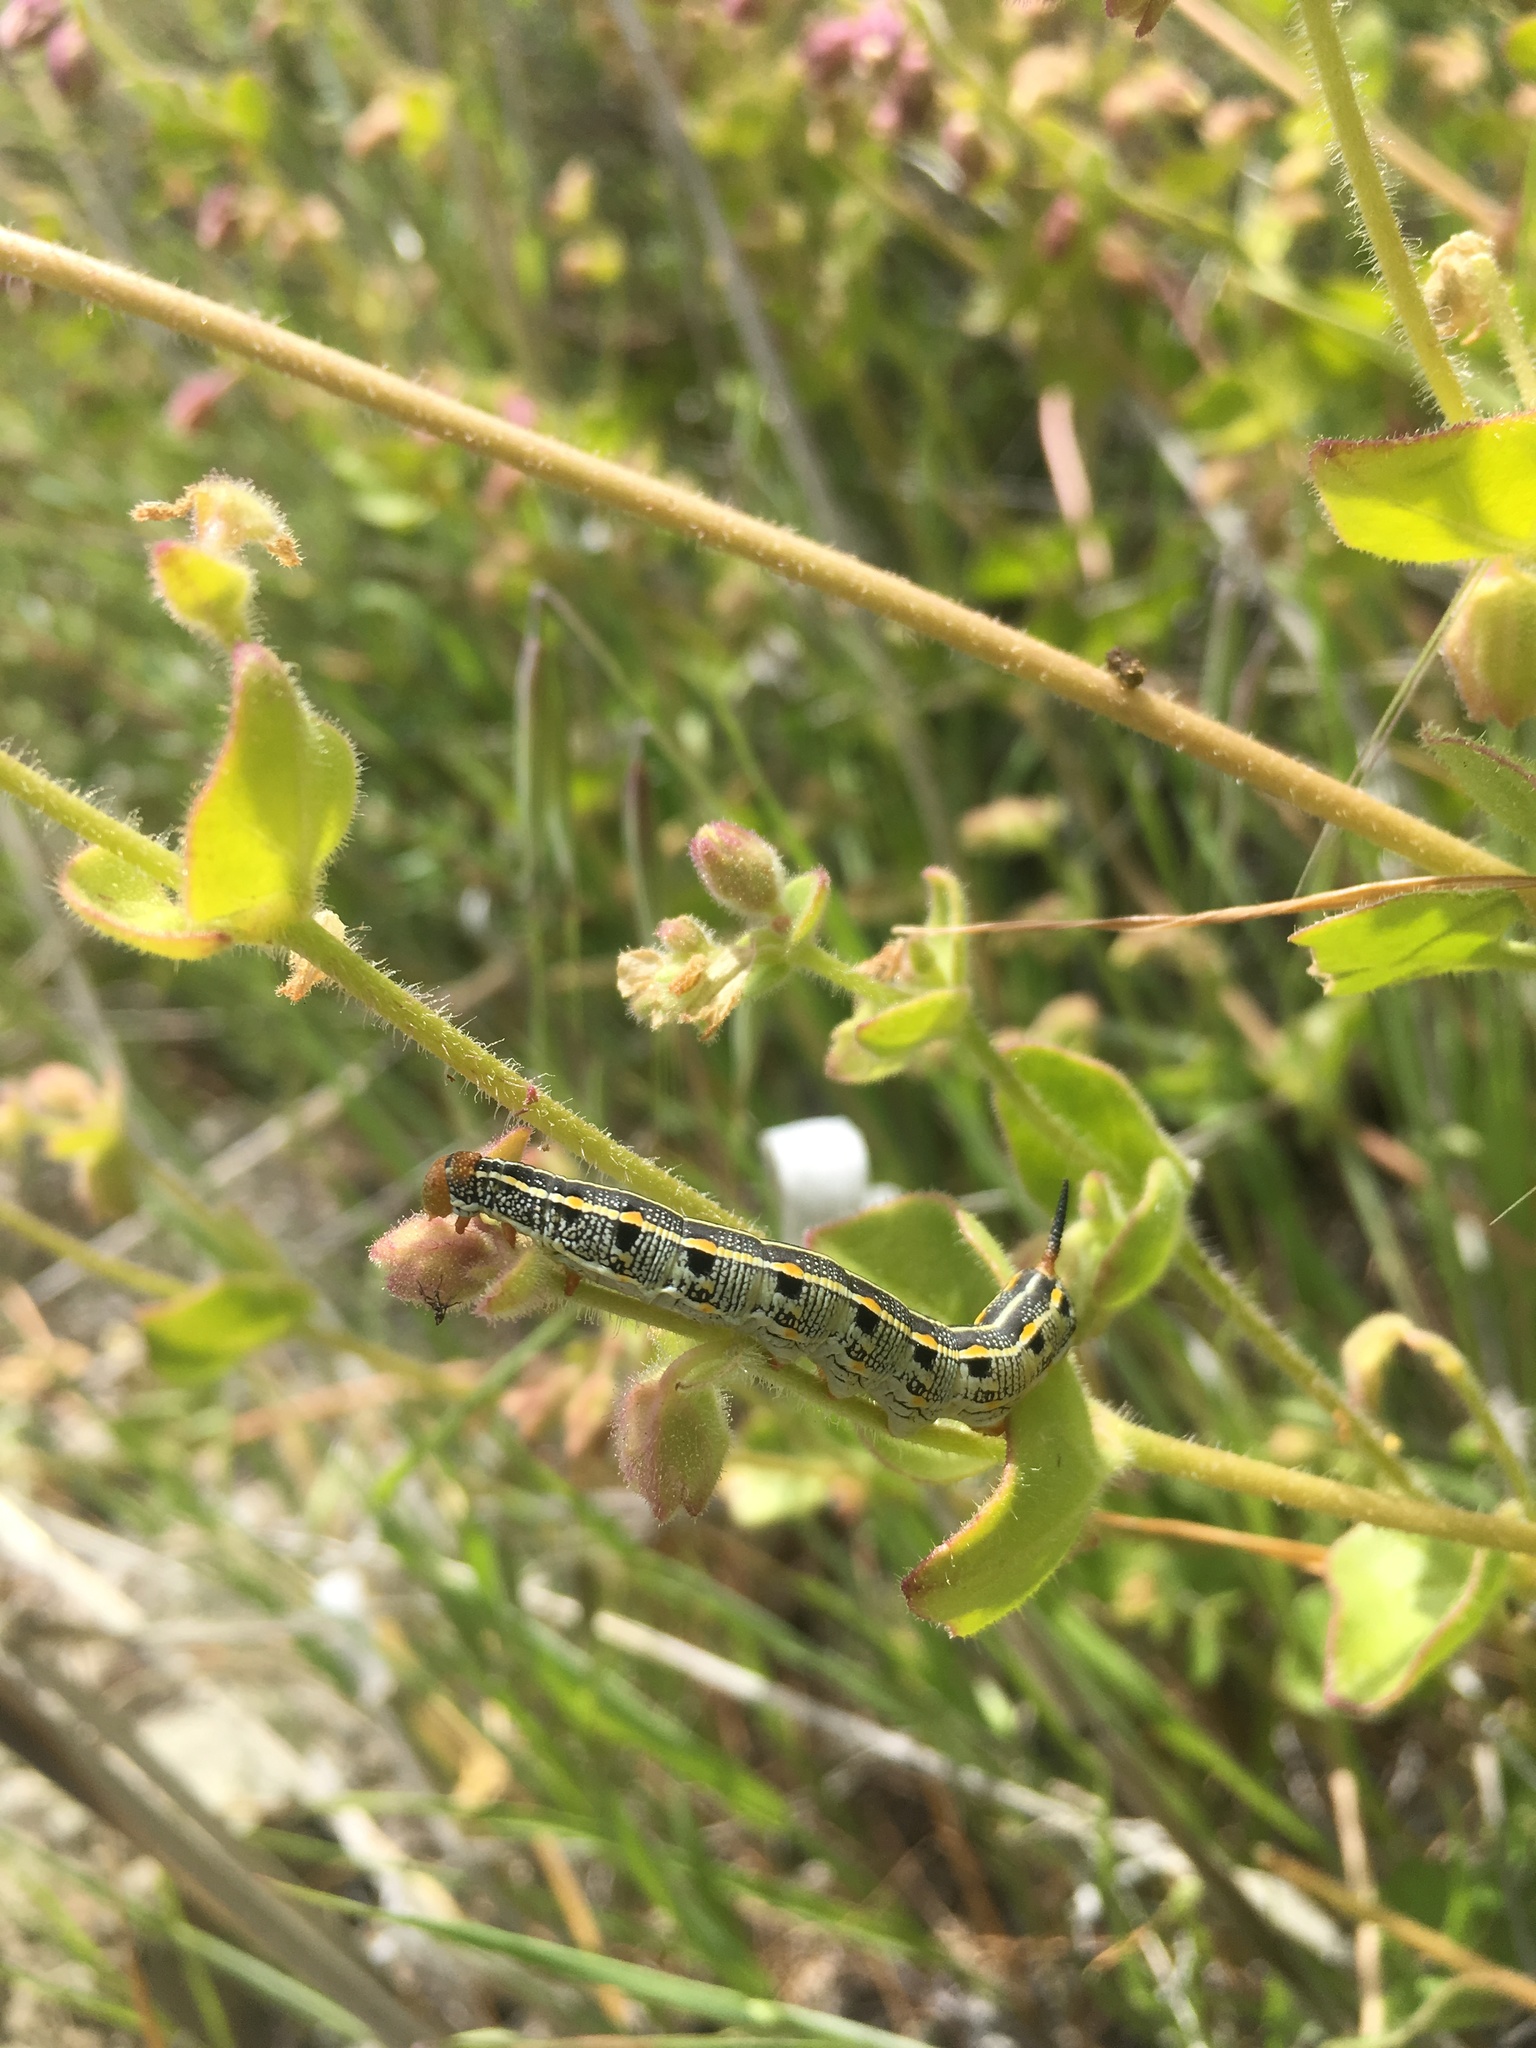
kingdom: Animalia
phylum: Arthropoda
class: Insecta
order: Lepidoptera
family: Sphingidae
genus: Hyles
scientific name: Hyles lineata
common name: White-lined sphinx
